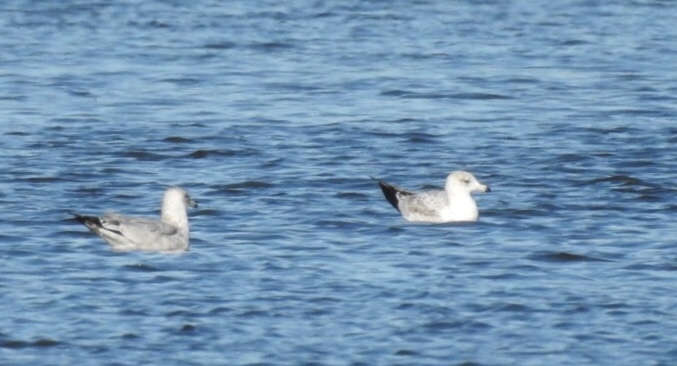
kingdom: Animalia
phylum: Chordata
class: Aves
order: Charadriiformes
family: Laridae
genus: Larus
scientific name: Larus delawarensis
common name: Ring-billed gull
